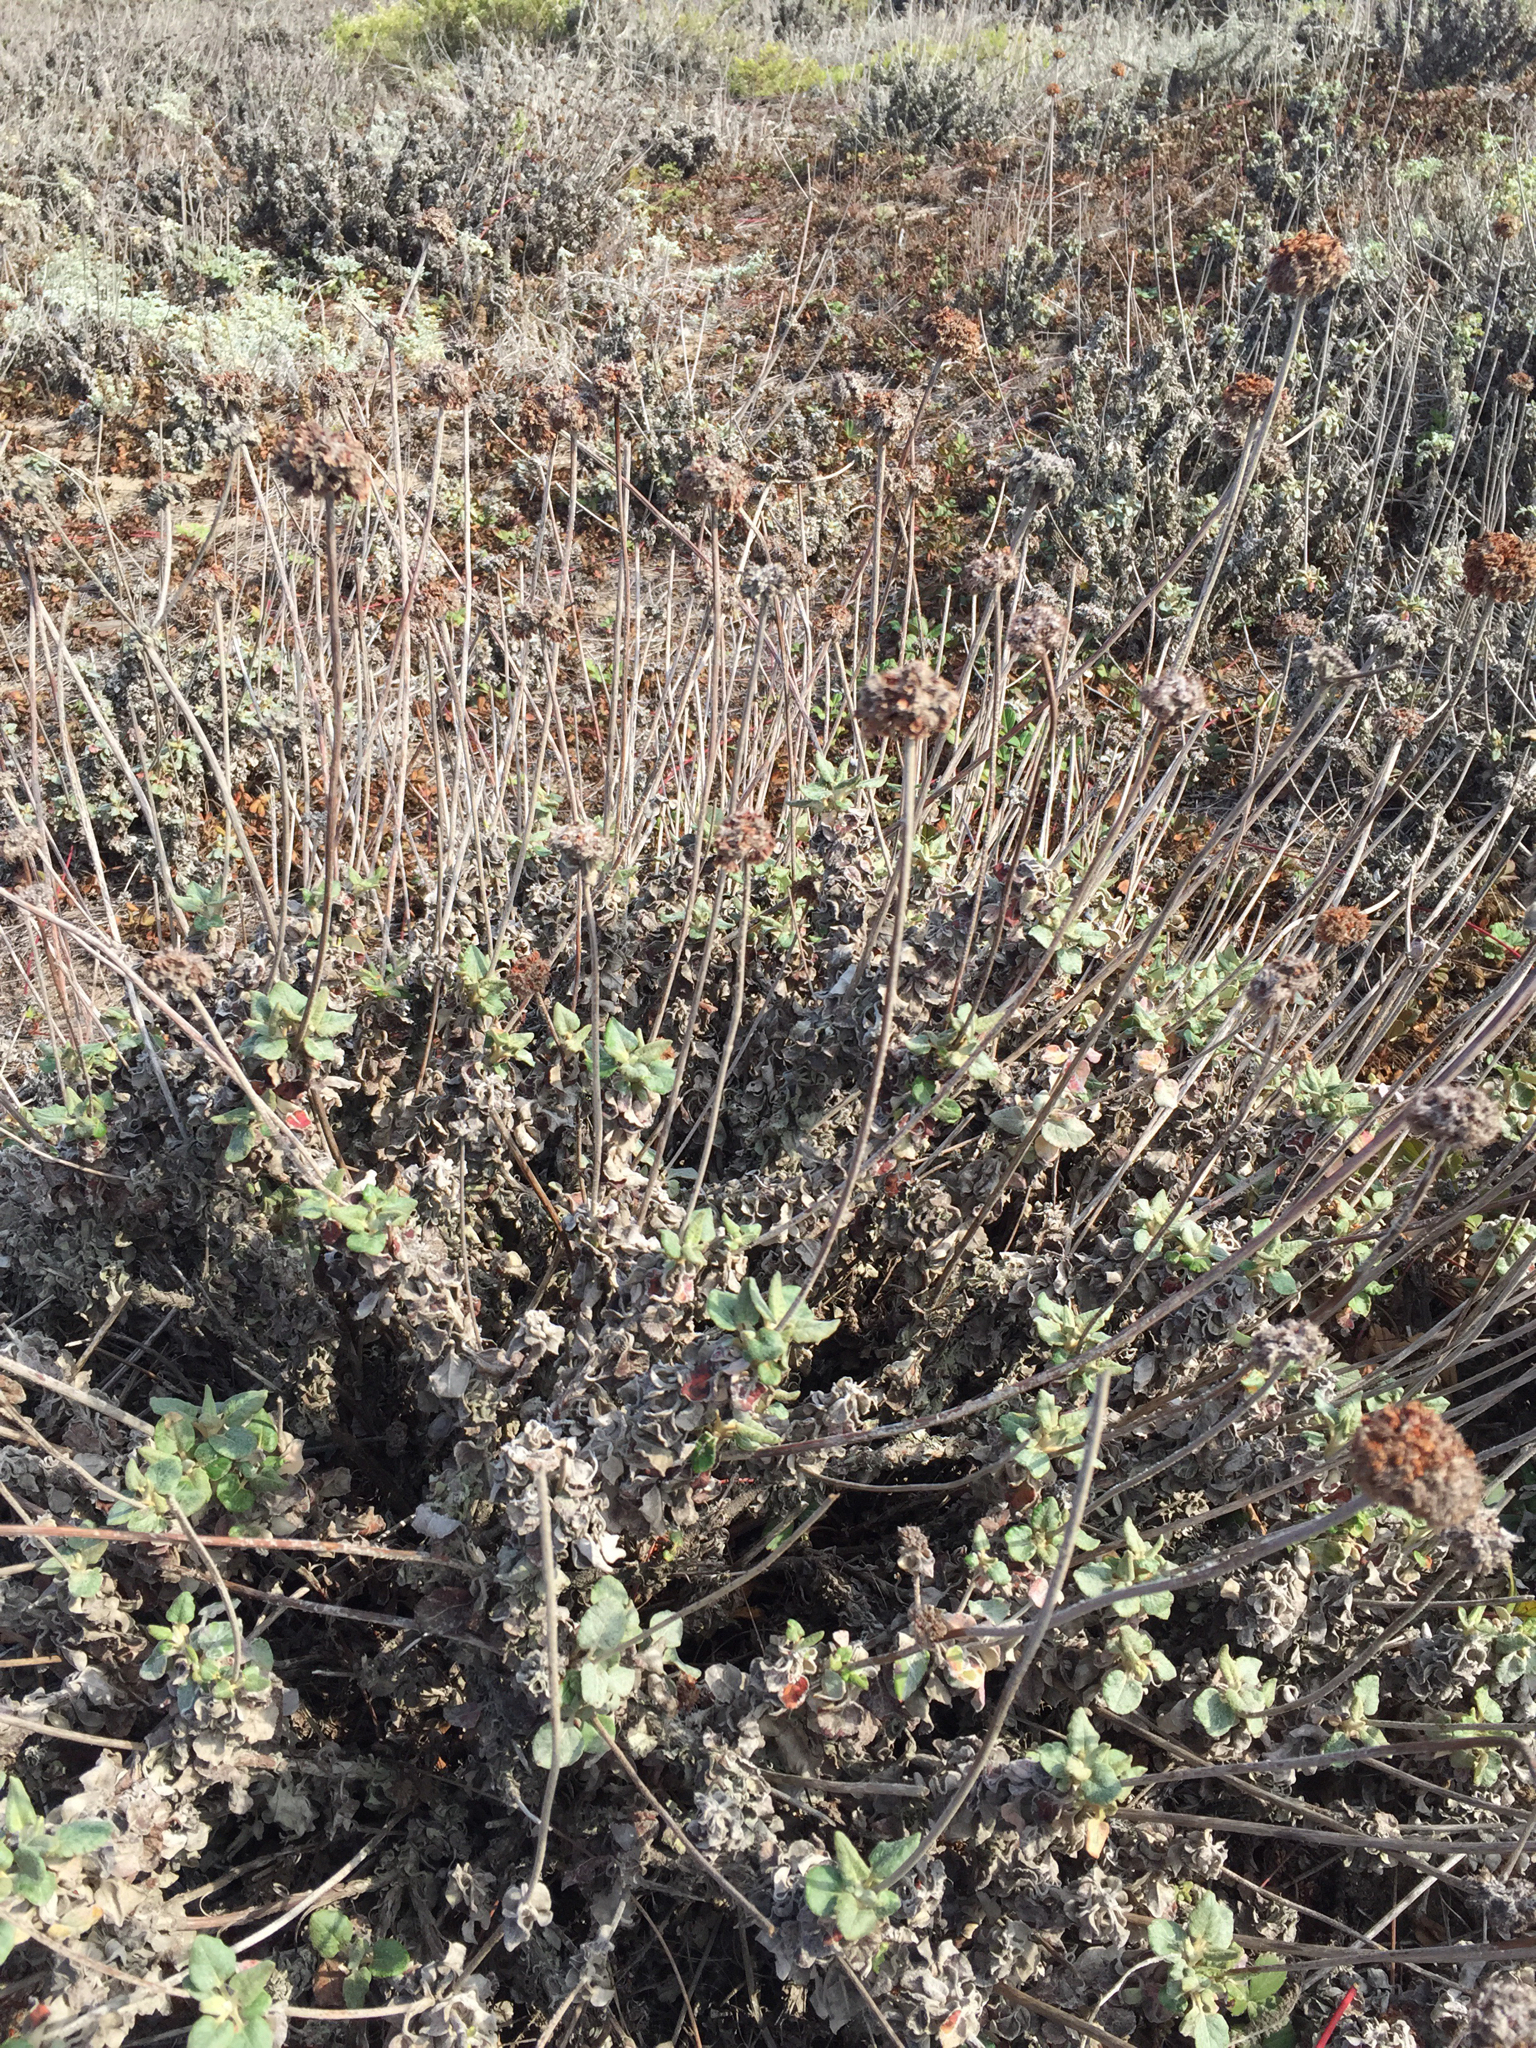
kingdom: Plantae
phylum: Tracheophyta
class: Magnoliopsida
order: Caryophyllales
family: Polygonaceae
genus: Eriogonum
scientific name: Eriogonum latifolium
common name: Seaside wild buckwheat
